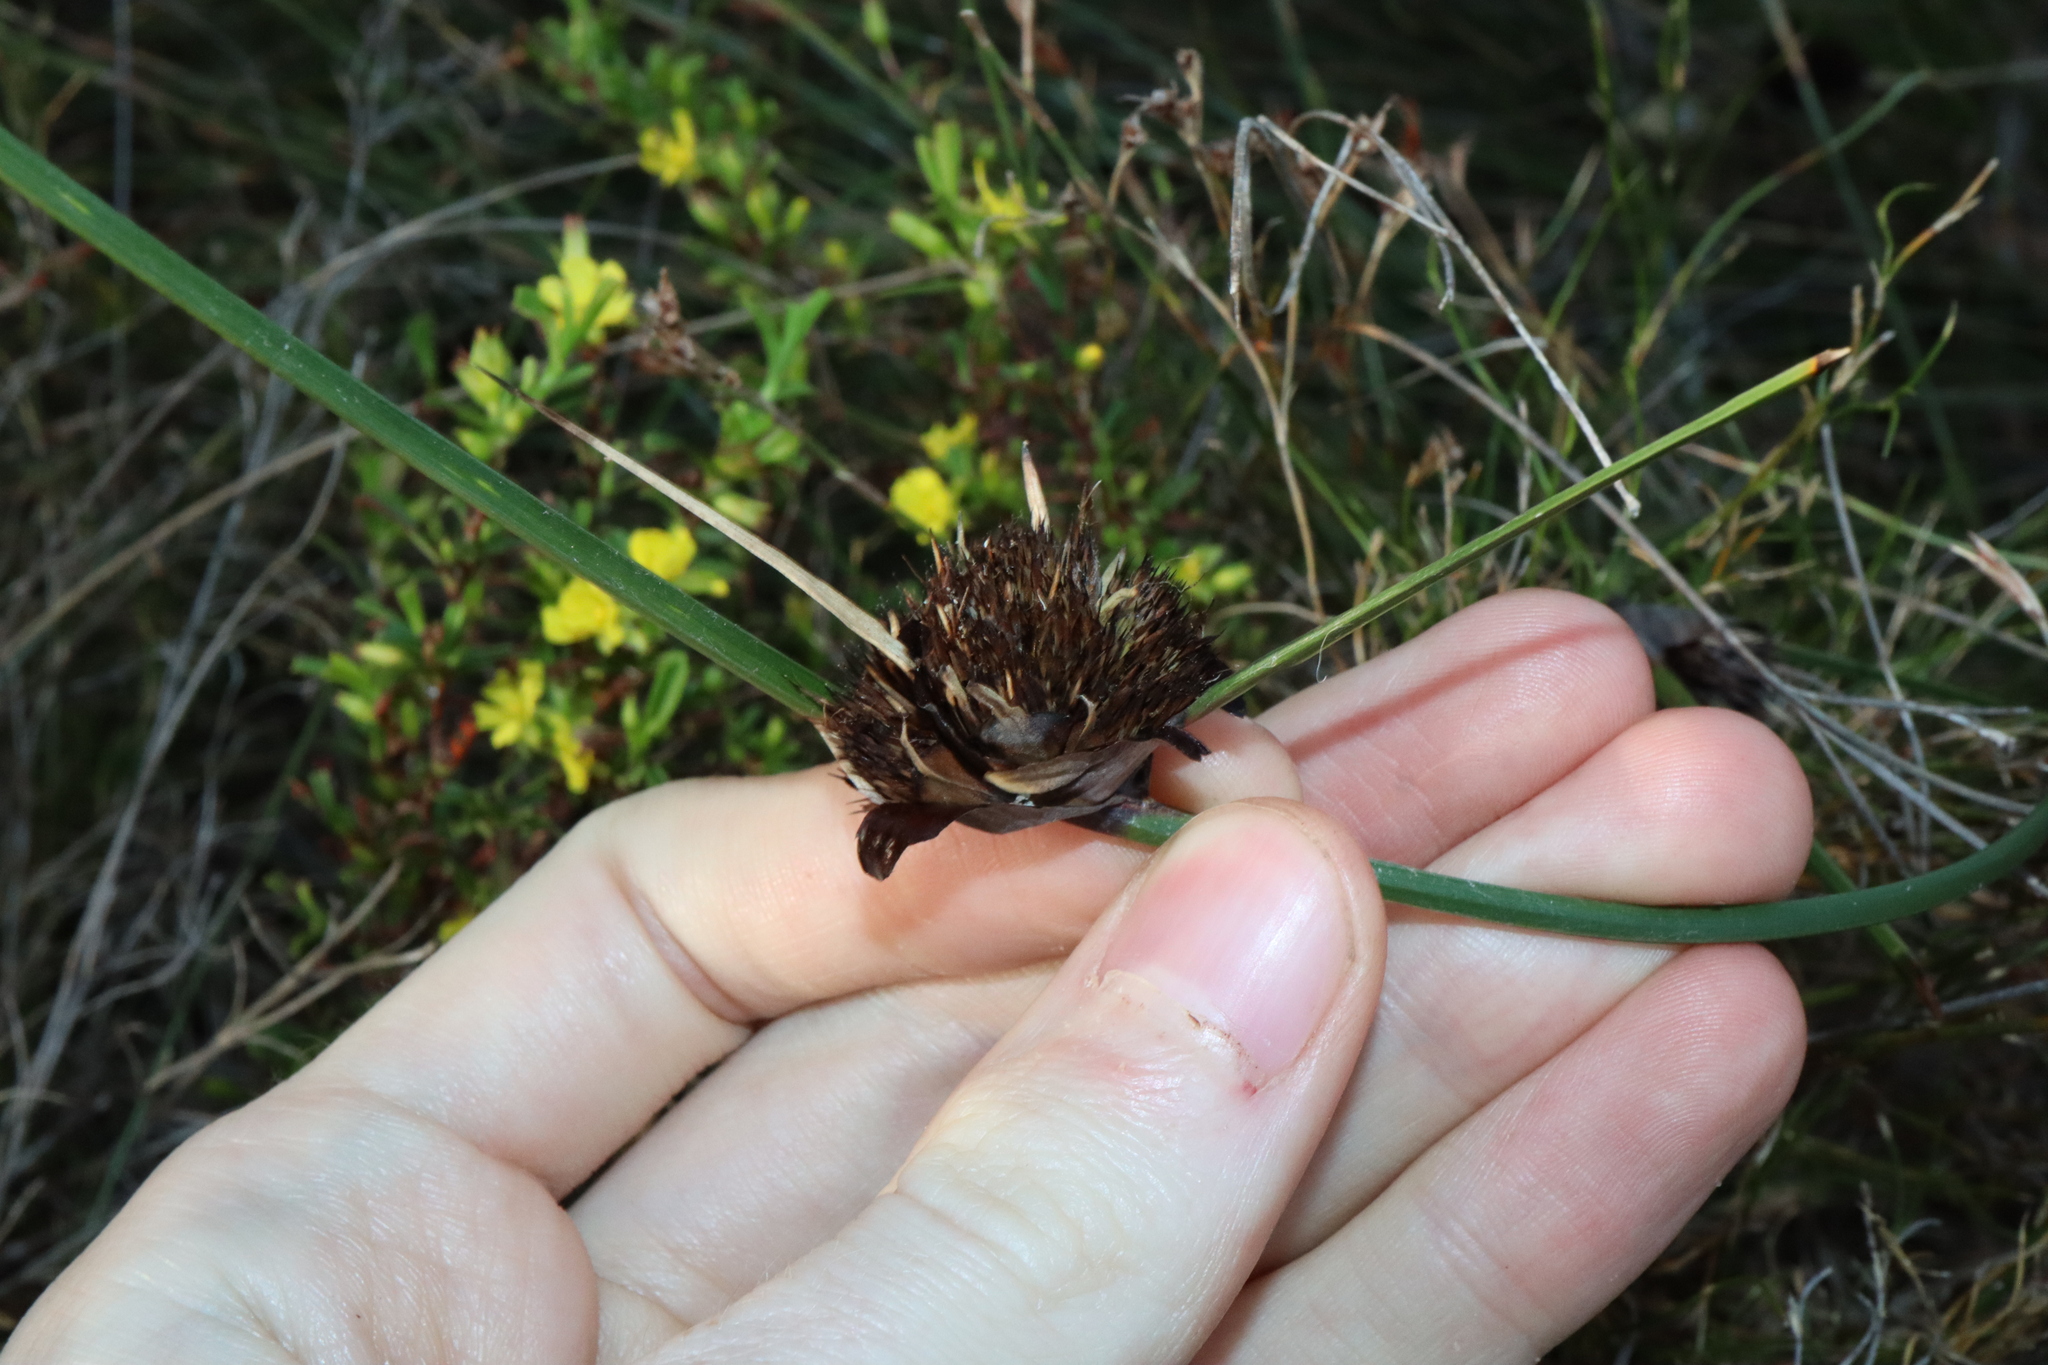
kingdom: Plantae
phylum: Tracheophyta
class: Liliopsida
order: Poales
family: Cyperaceae
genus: Mesomelaena
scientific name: Mesomelaena tetragona
